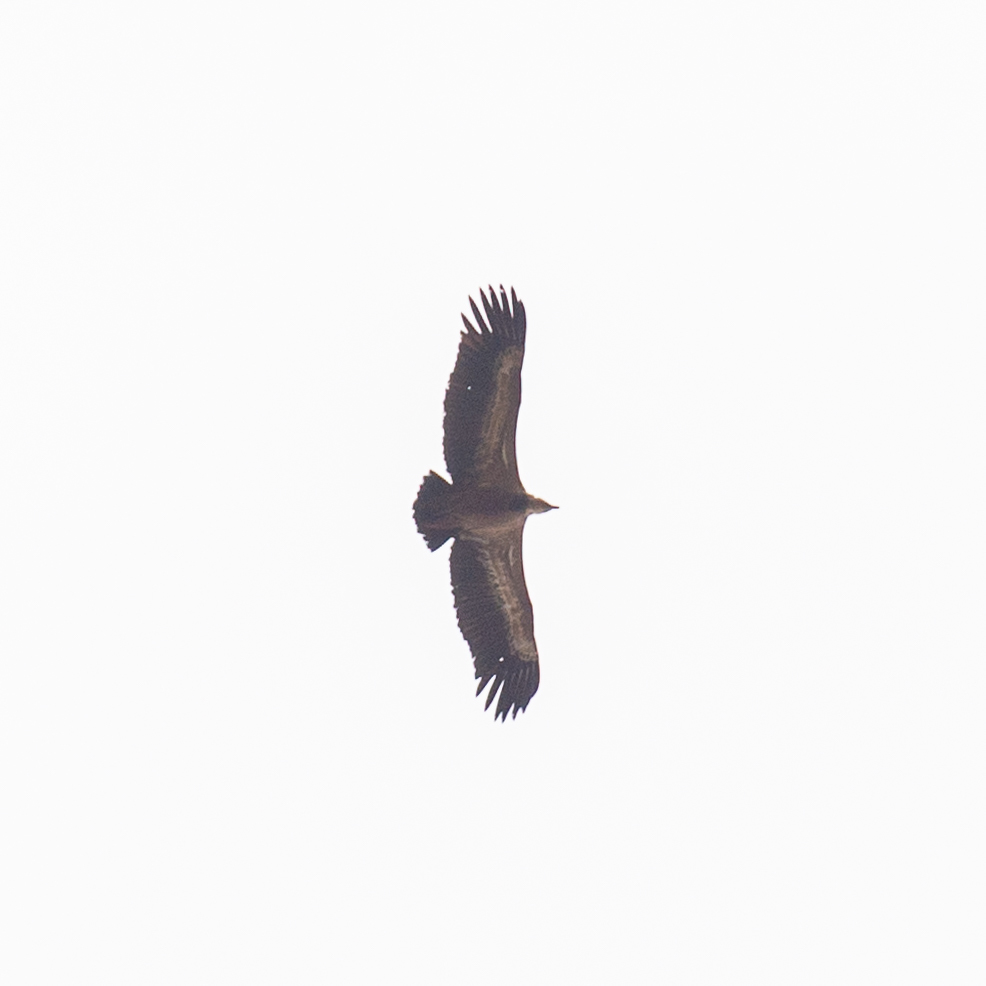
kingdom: Animalia
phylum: Chordata
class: Aves
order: Accipitriformes
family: Accipitridae
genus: Gyps
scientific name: Gyps fulvus
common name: Griffon vulture
